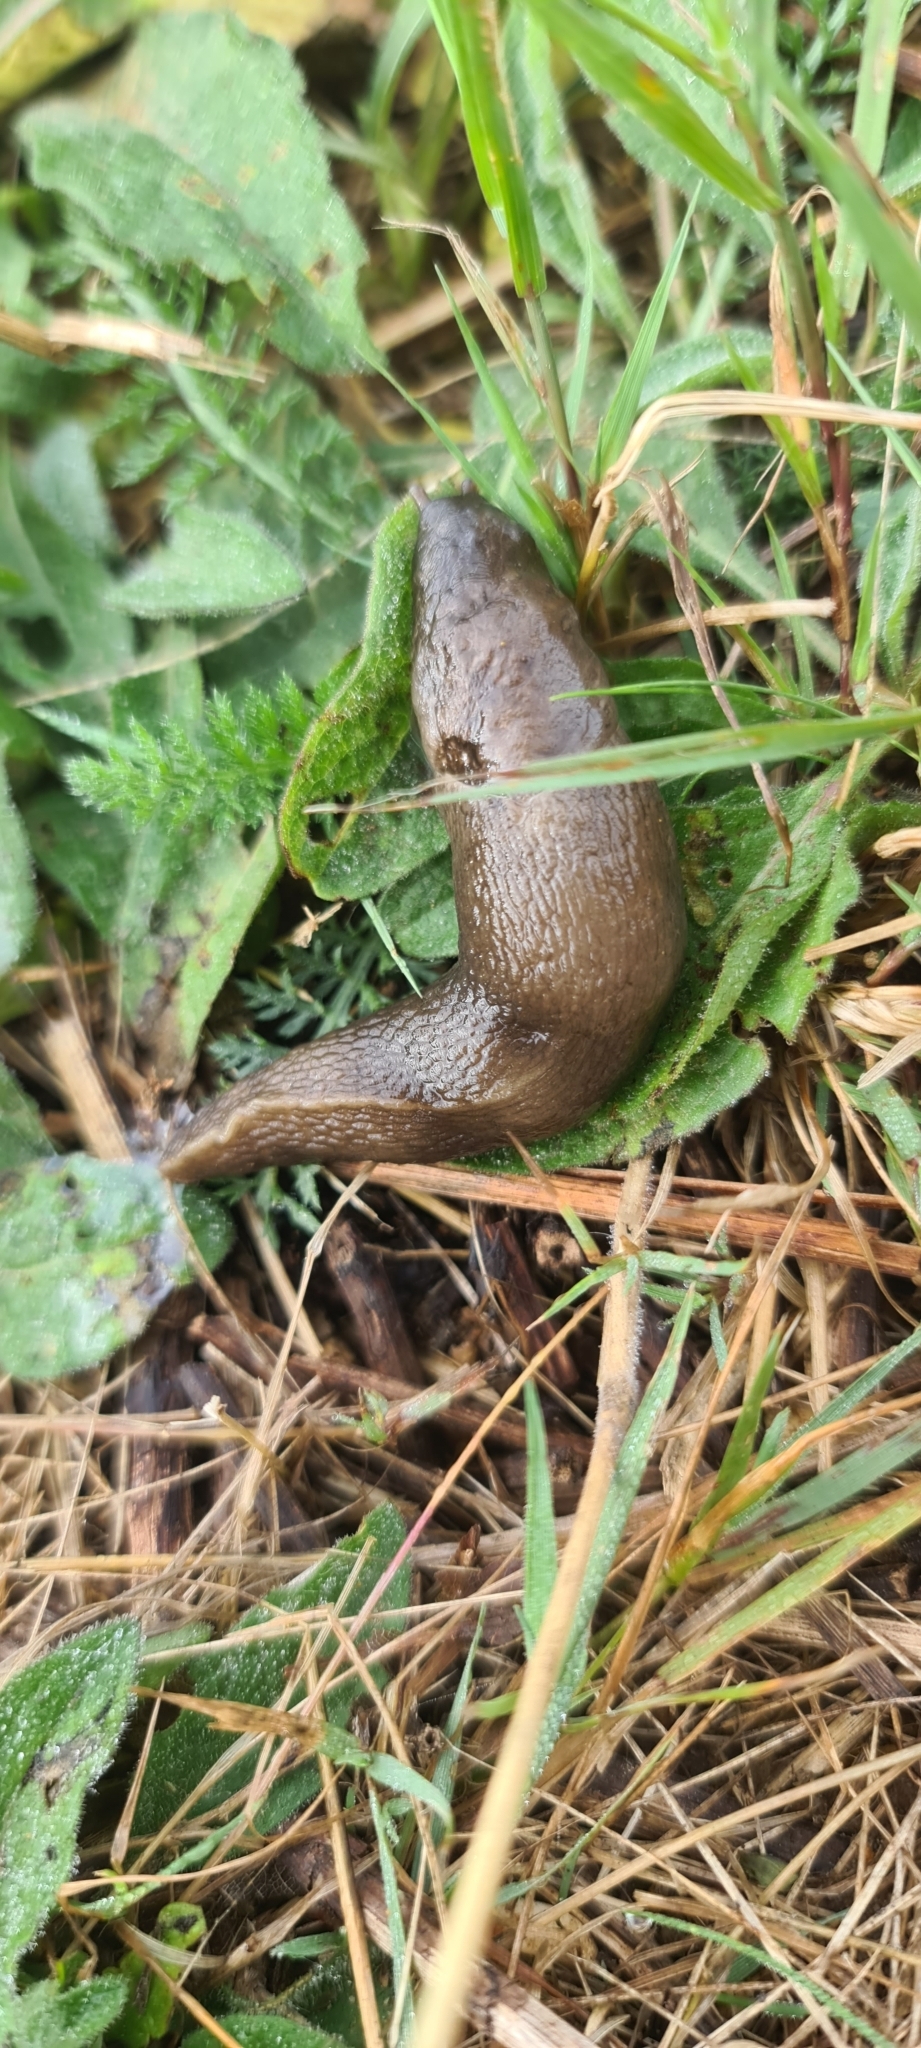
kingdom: Animalia
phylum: Mollusca
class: Gastropoda
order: Stylommatophora
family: Limacidae
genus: Limax
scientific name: Limax maximus
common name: Great grey slug
